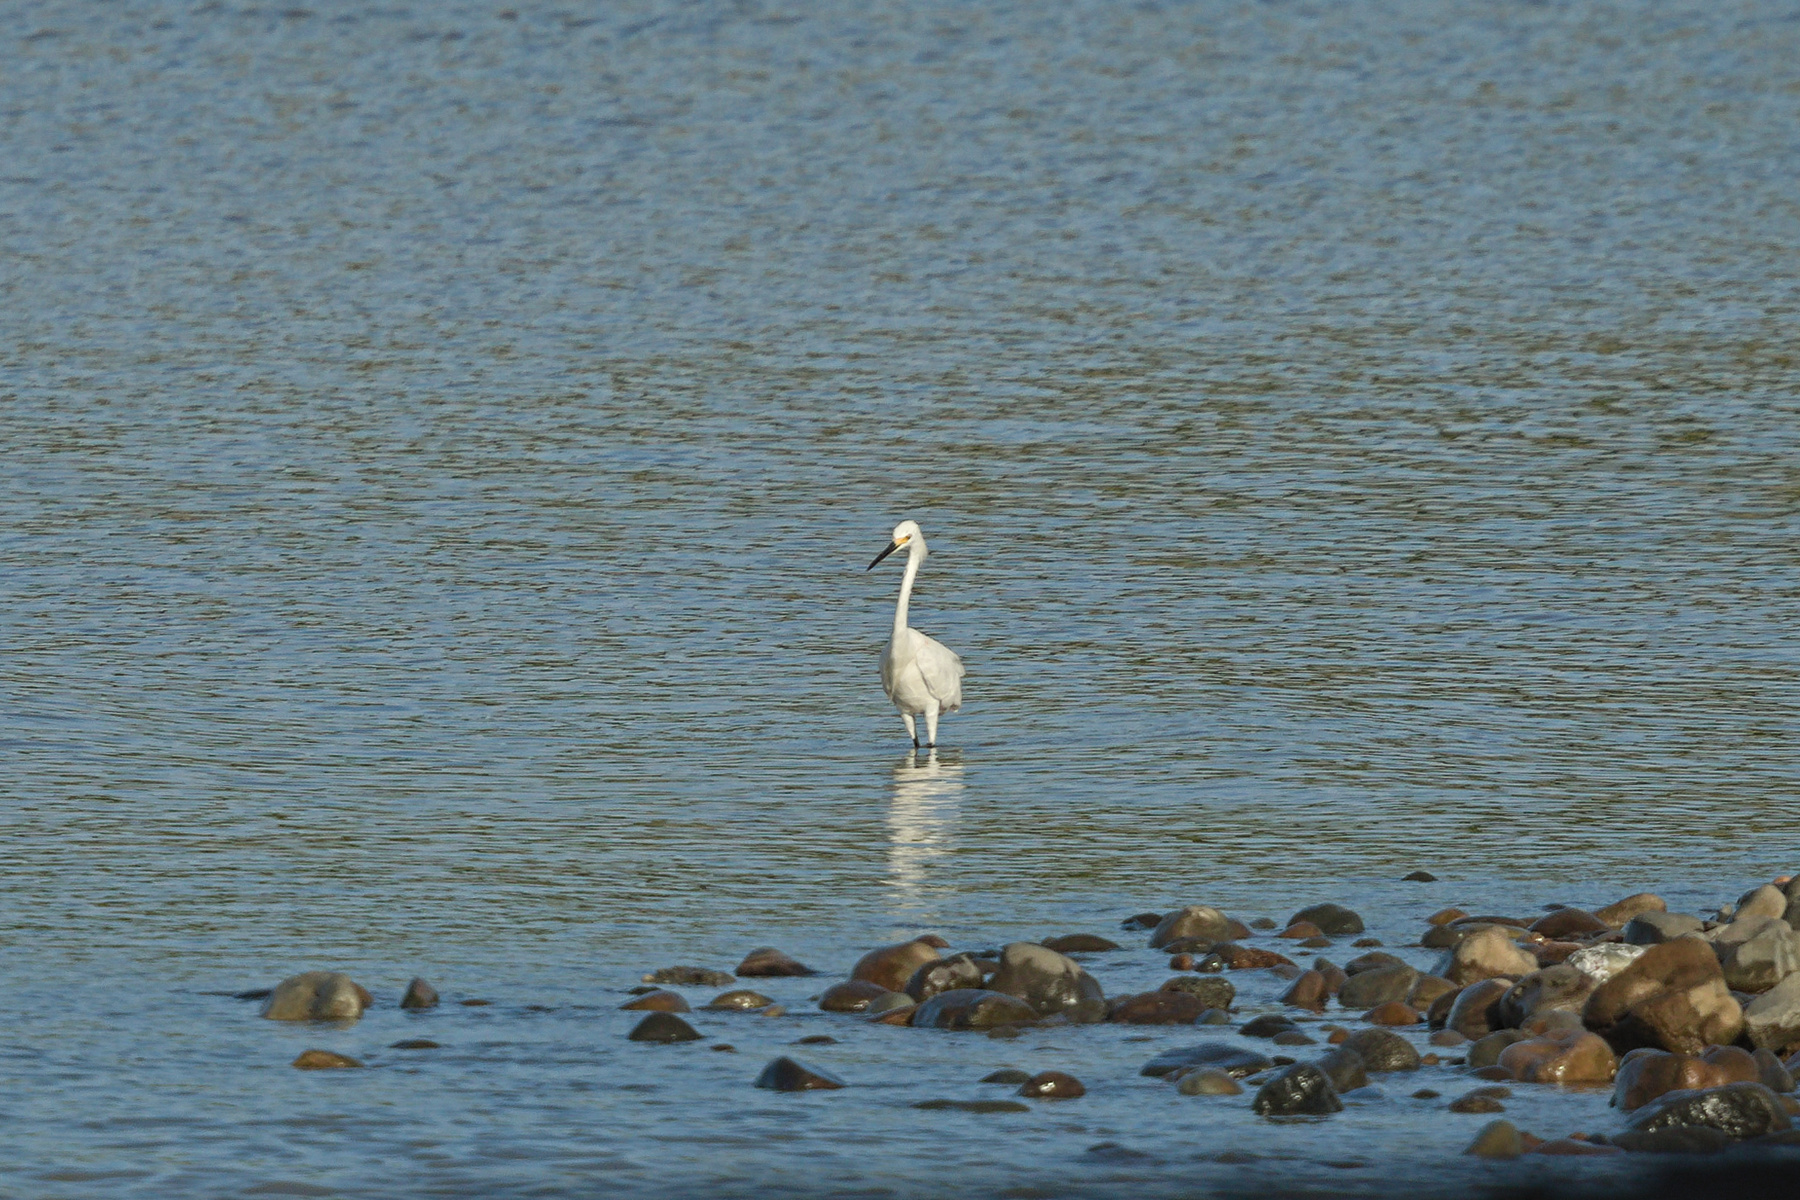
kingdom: Animalia
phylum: Chordata
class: Aves
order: Pelecaniformes
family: Ardeidae
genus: Egretta
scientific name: Egretta thula
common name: Snowy egret
